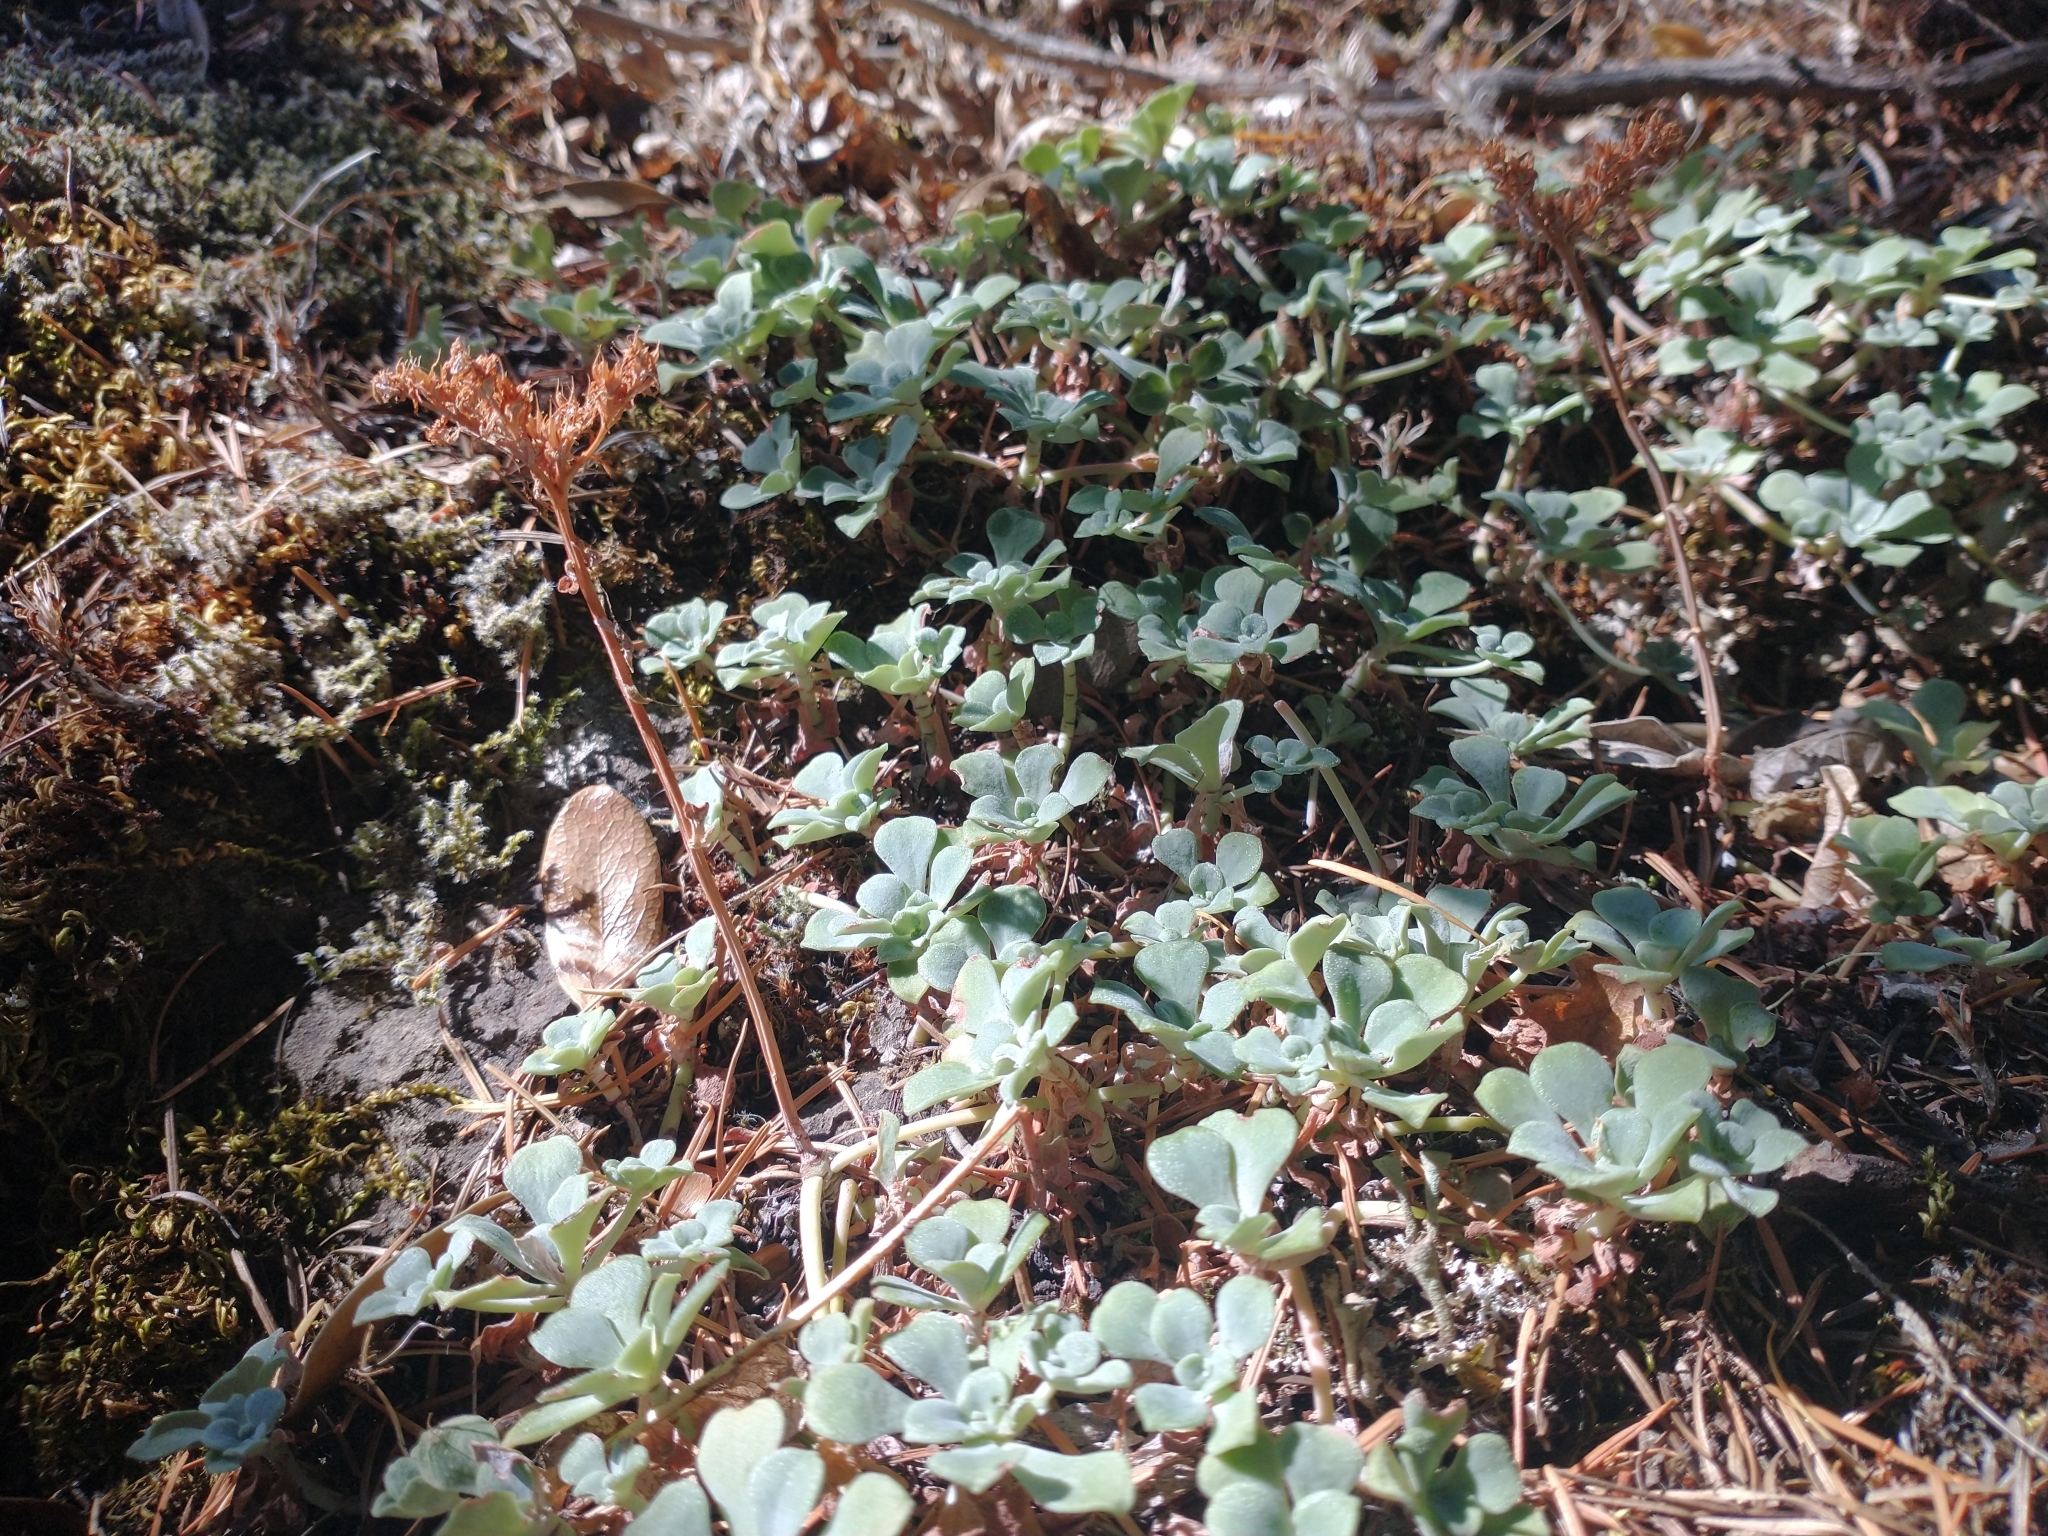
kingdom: Plantae
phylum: Tracheophyta
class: Magnoliopsida
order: Saxifragales
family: Crassulaceae
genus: Sedum
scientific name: Sedum spathulifolium
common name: Colorado stonecrop
